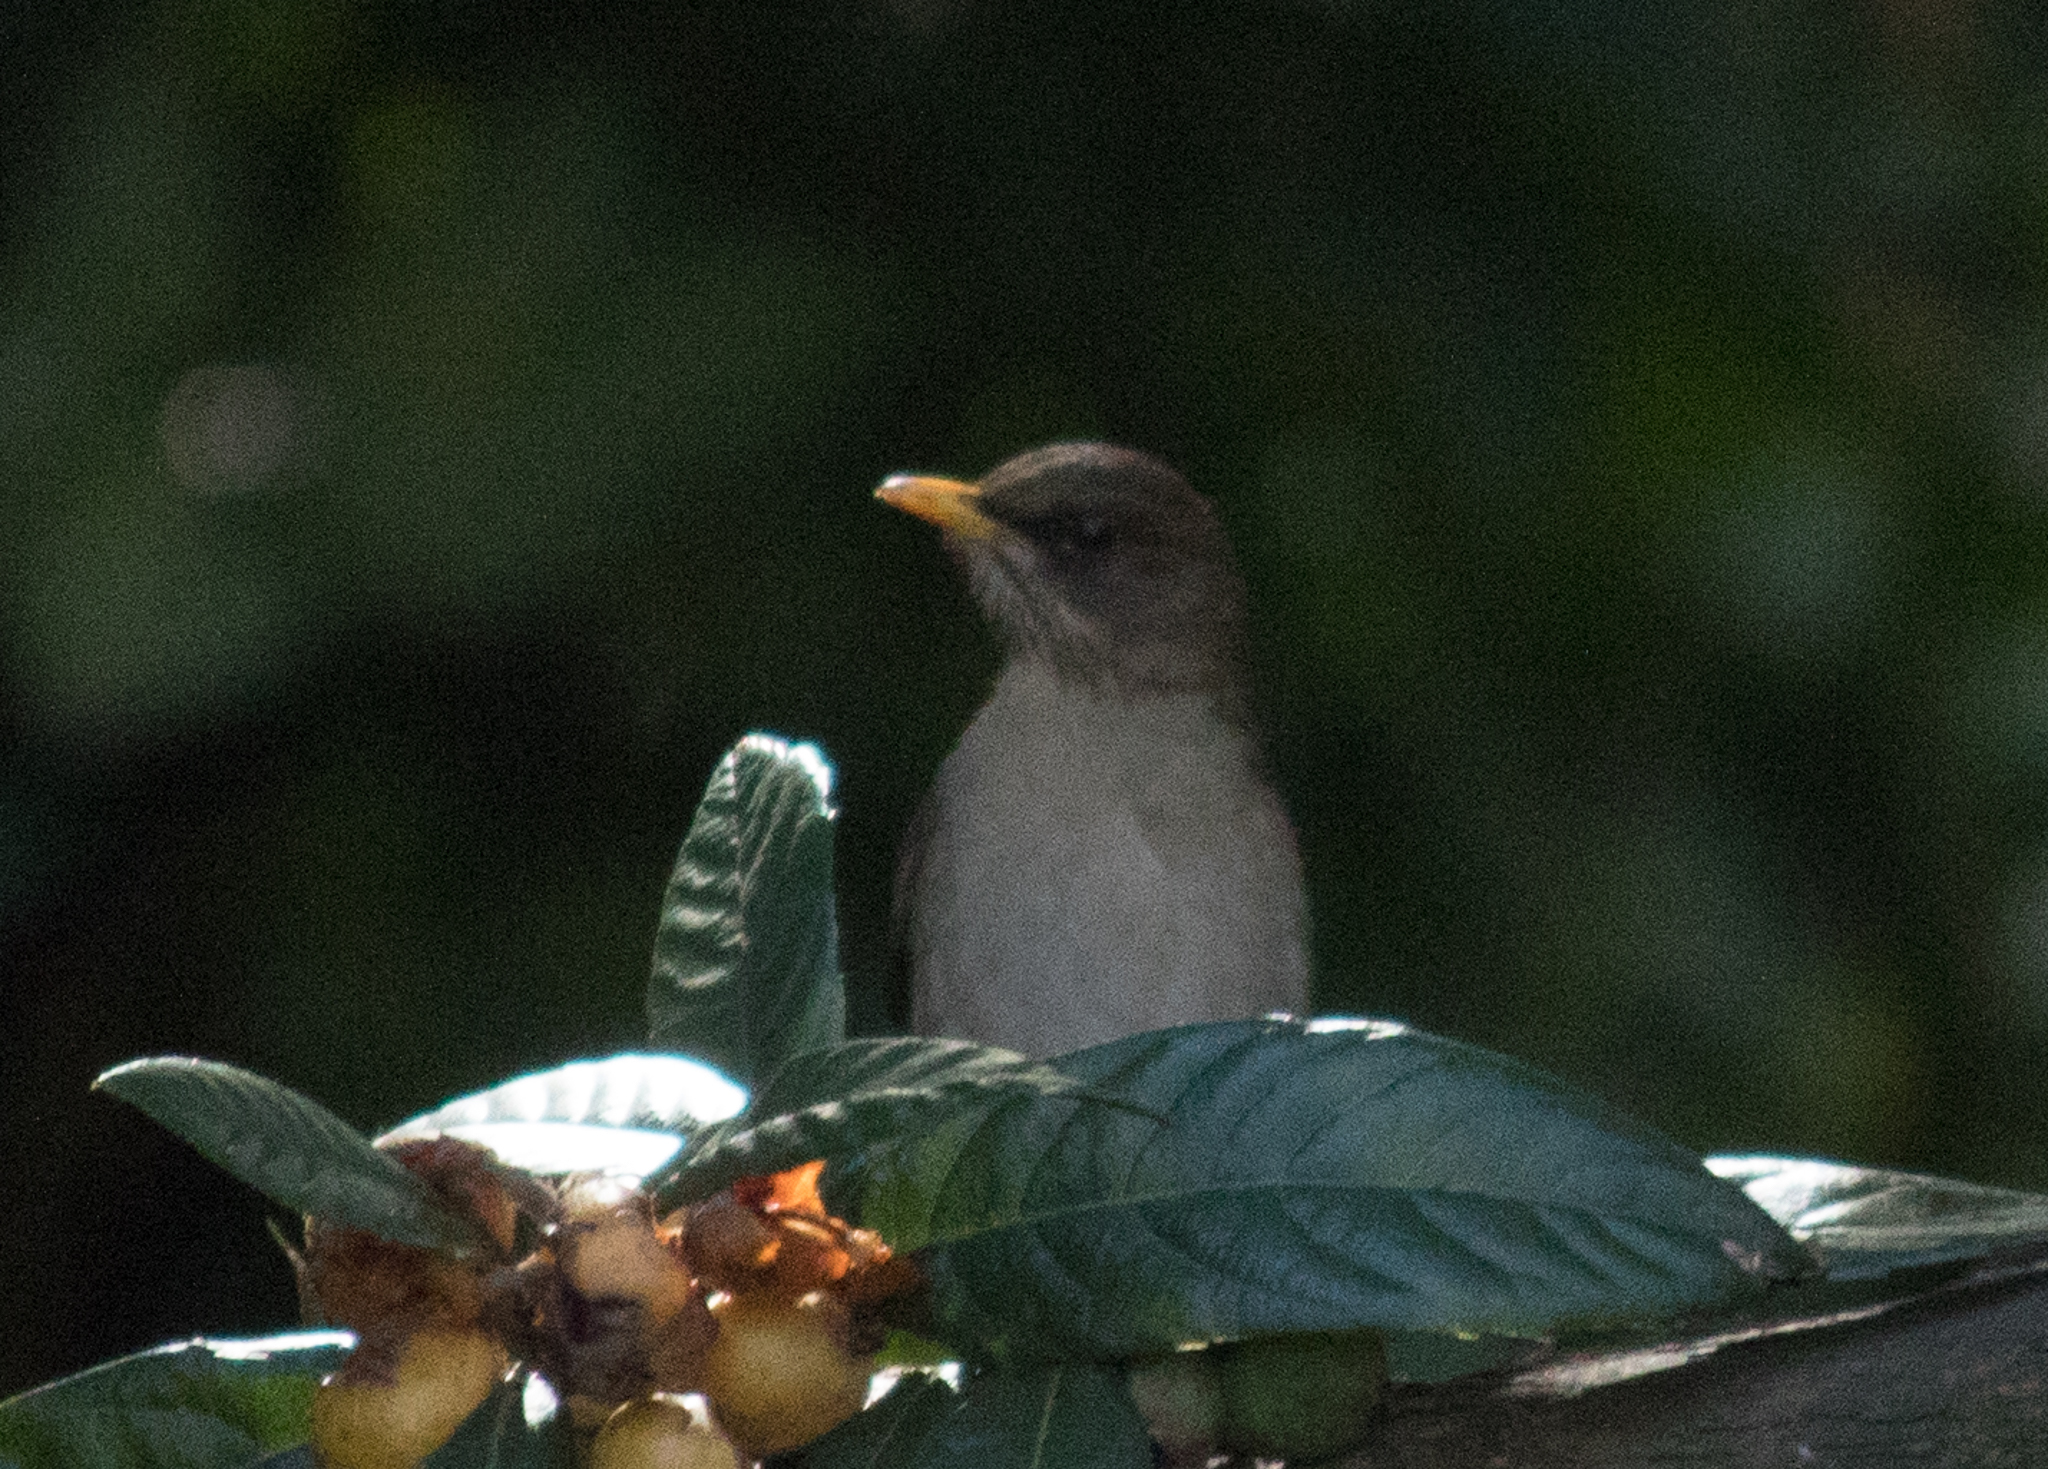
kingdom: Animalia
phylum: Chordata
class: Aves
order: Passeriformes
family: Turdidae
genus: Turdus
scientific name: Turdus amaurochalinus
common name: Creamy-bellied thrush
